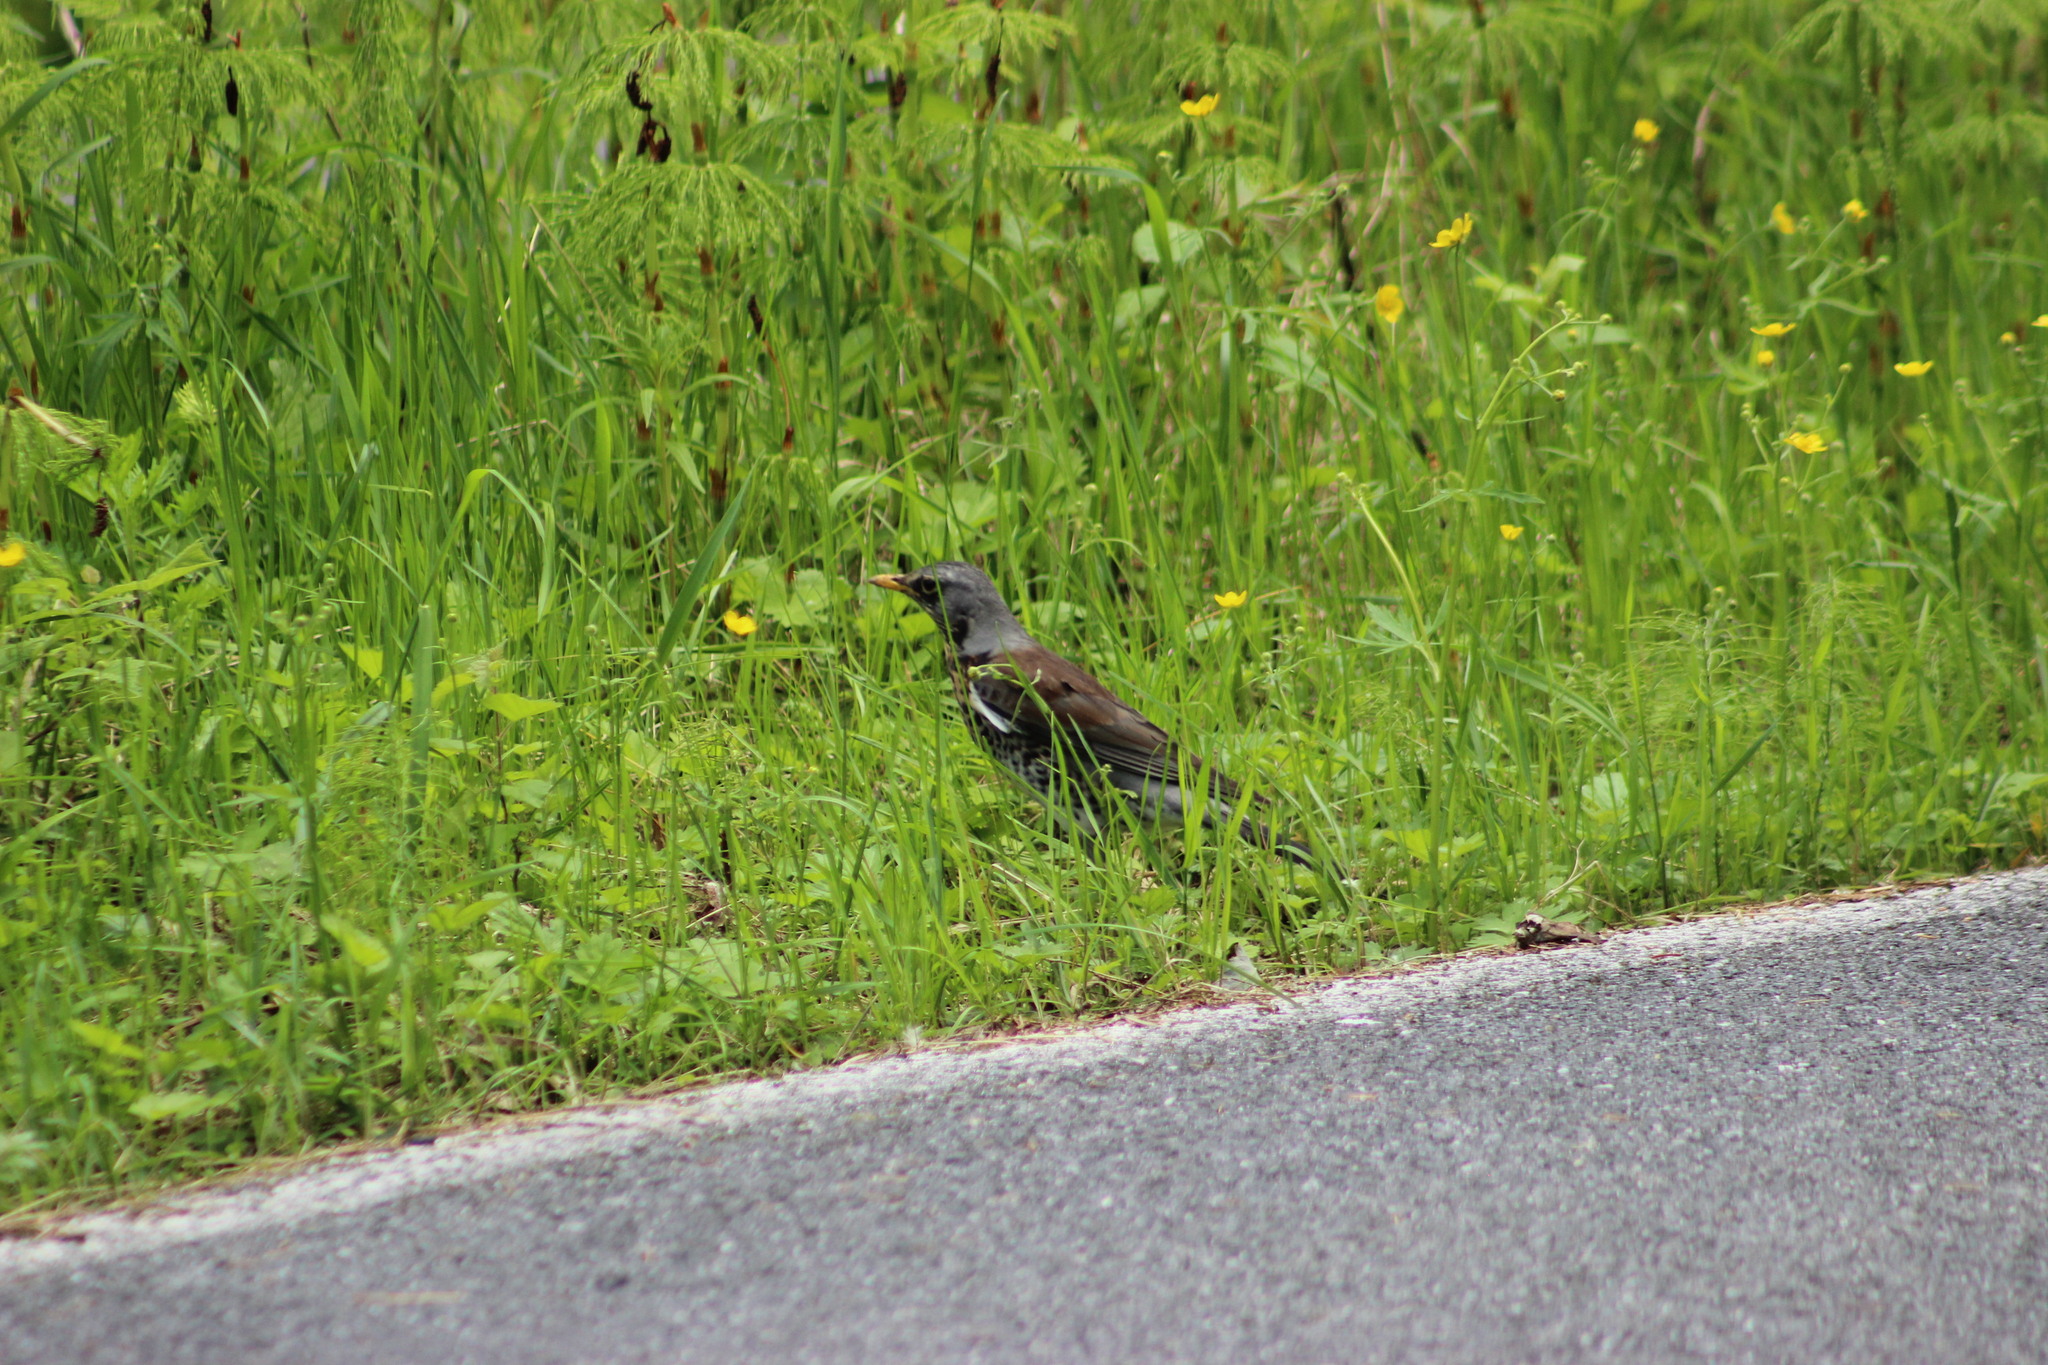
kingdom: Animalia
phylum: Chordata
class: Aves
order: Passeriformes
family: Turdidae
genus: Turdus
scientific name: Turdus pilaris
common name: Fieldfare
